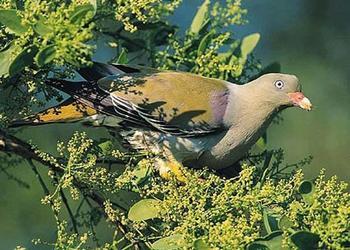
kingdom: Animalia
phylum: Chordata
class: Aves
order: Columbiformes
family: Columbidae
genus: Treron
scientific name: Treron calvus
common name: African green pigeon
